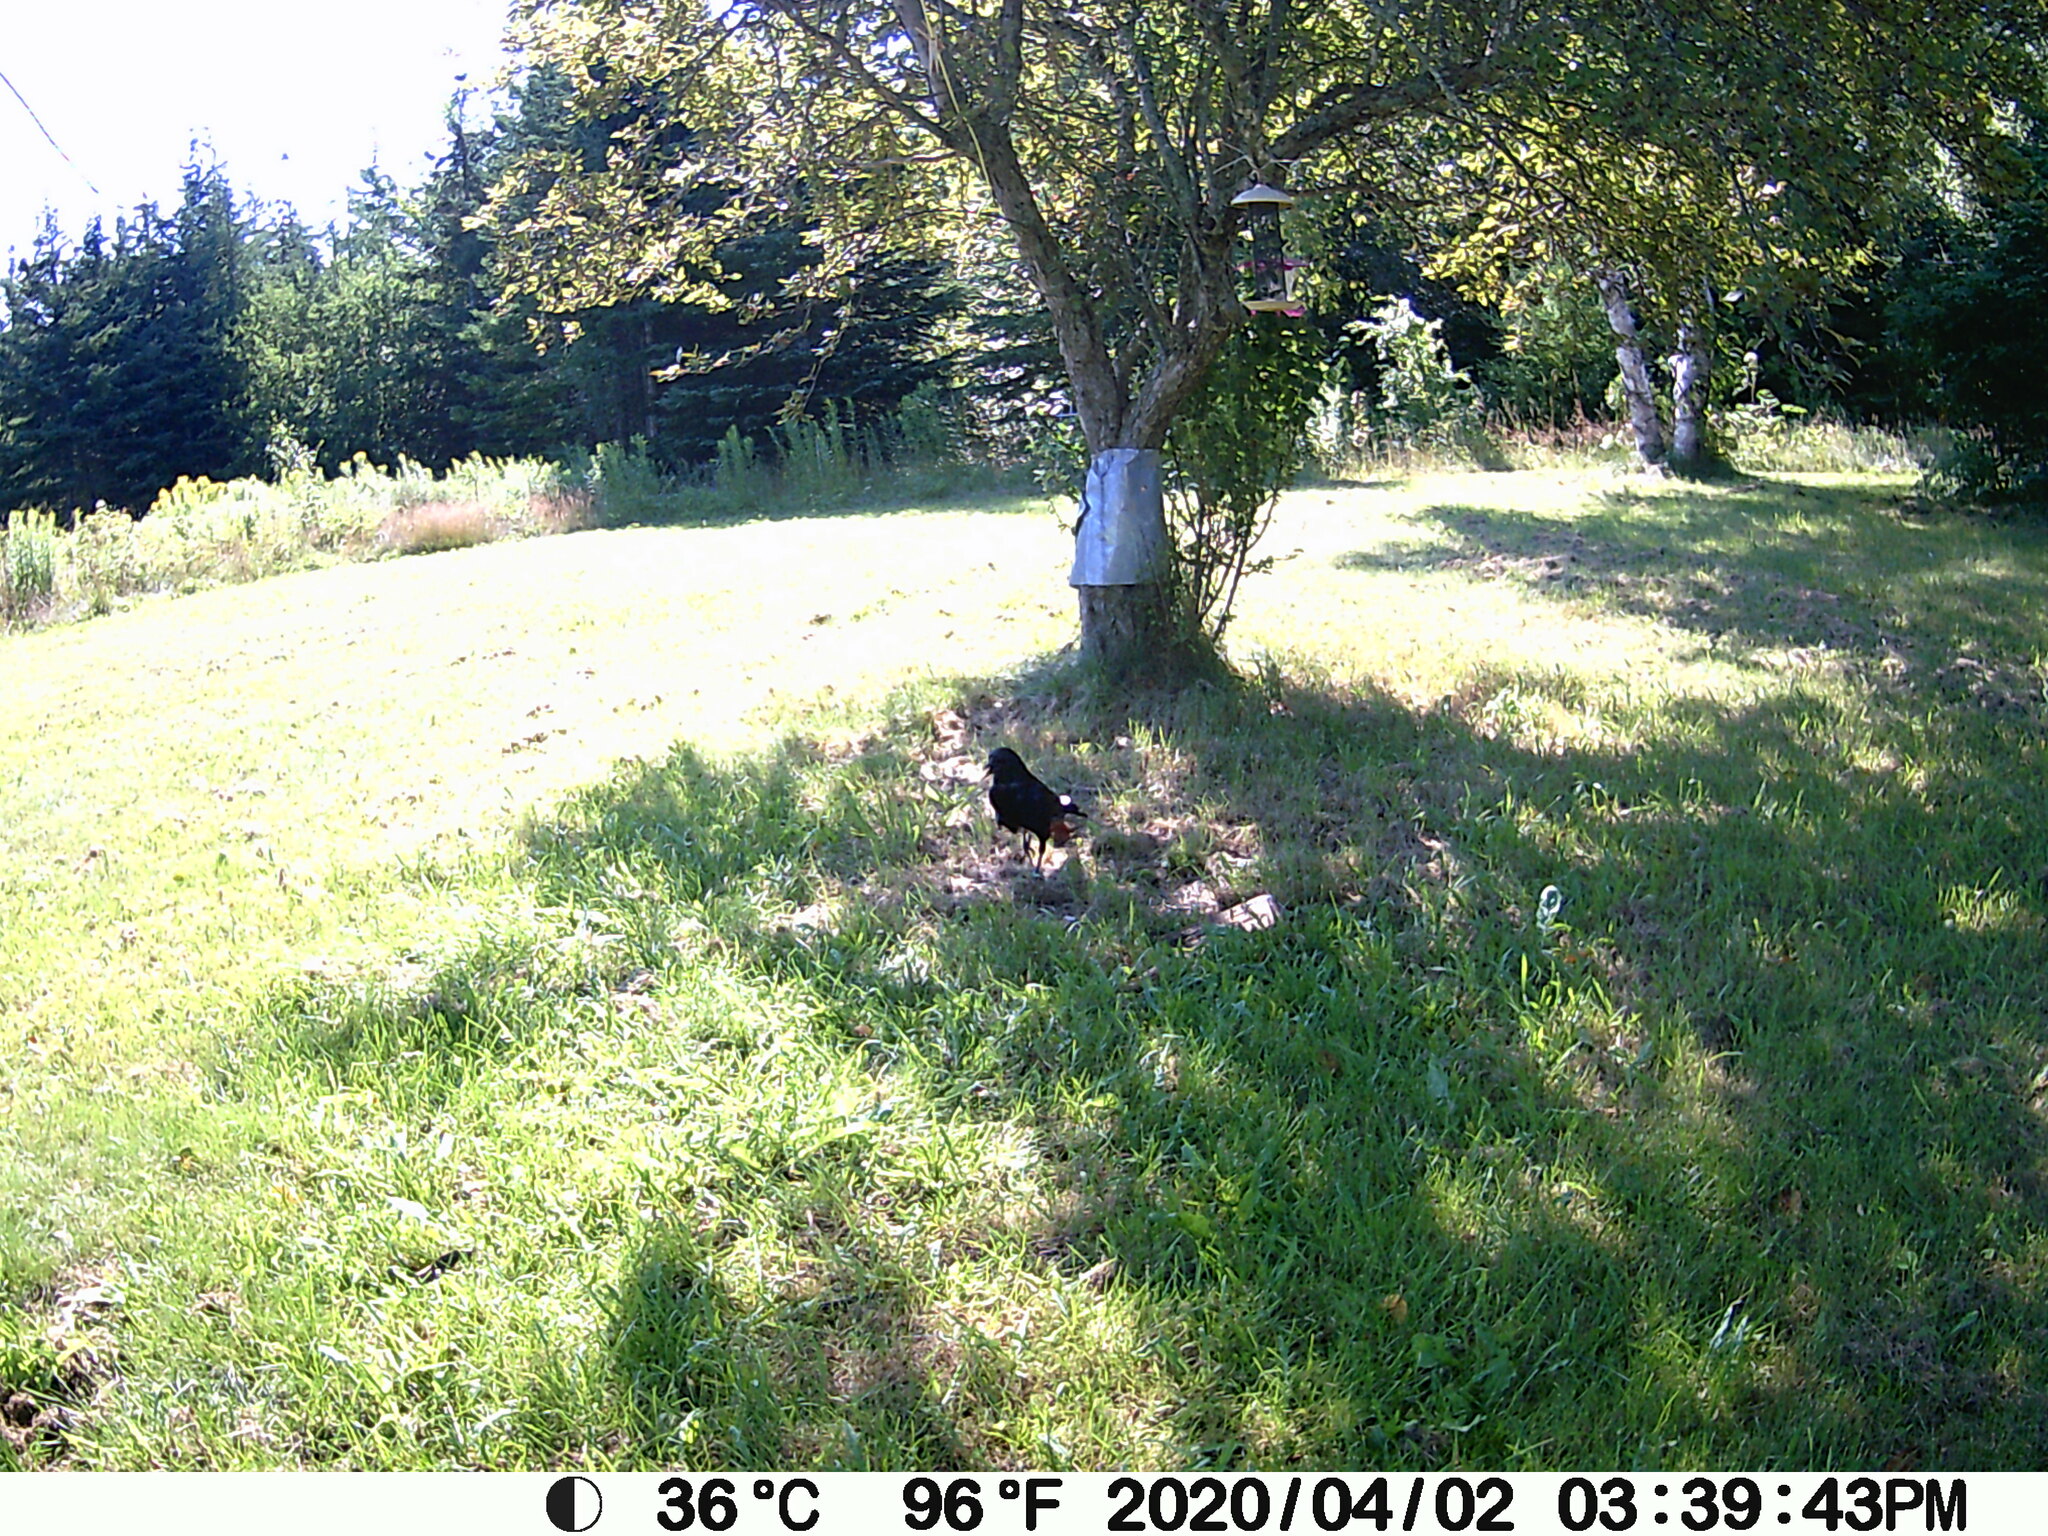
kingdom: Animalia
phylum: Chordata
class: Aves
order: Passeriformes
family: Corvidae
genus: Corvus
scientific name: Corvus brachyrhynchos
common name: American crow
